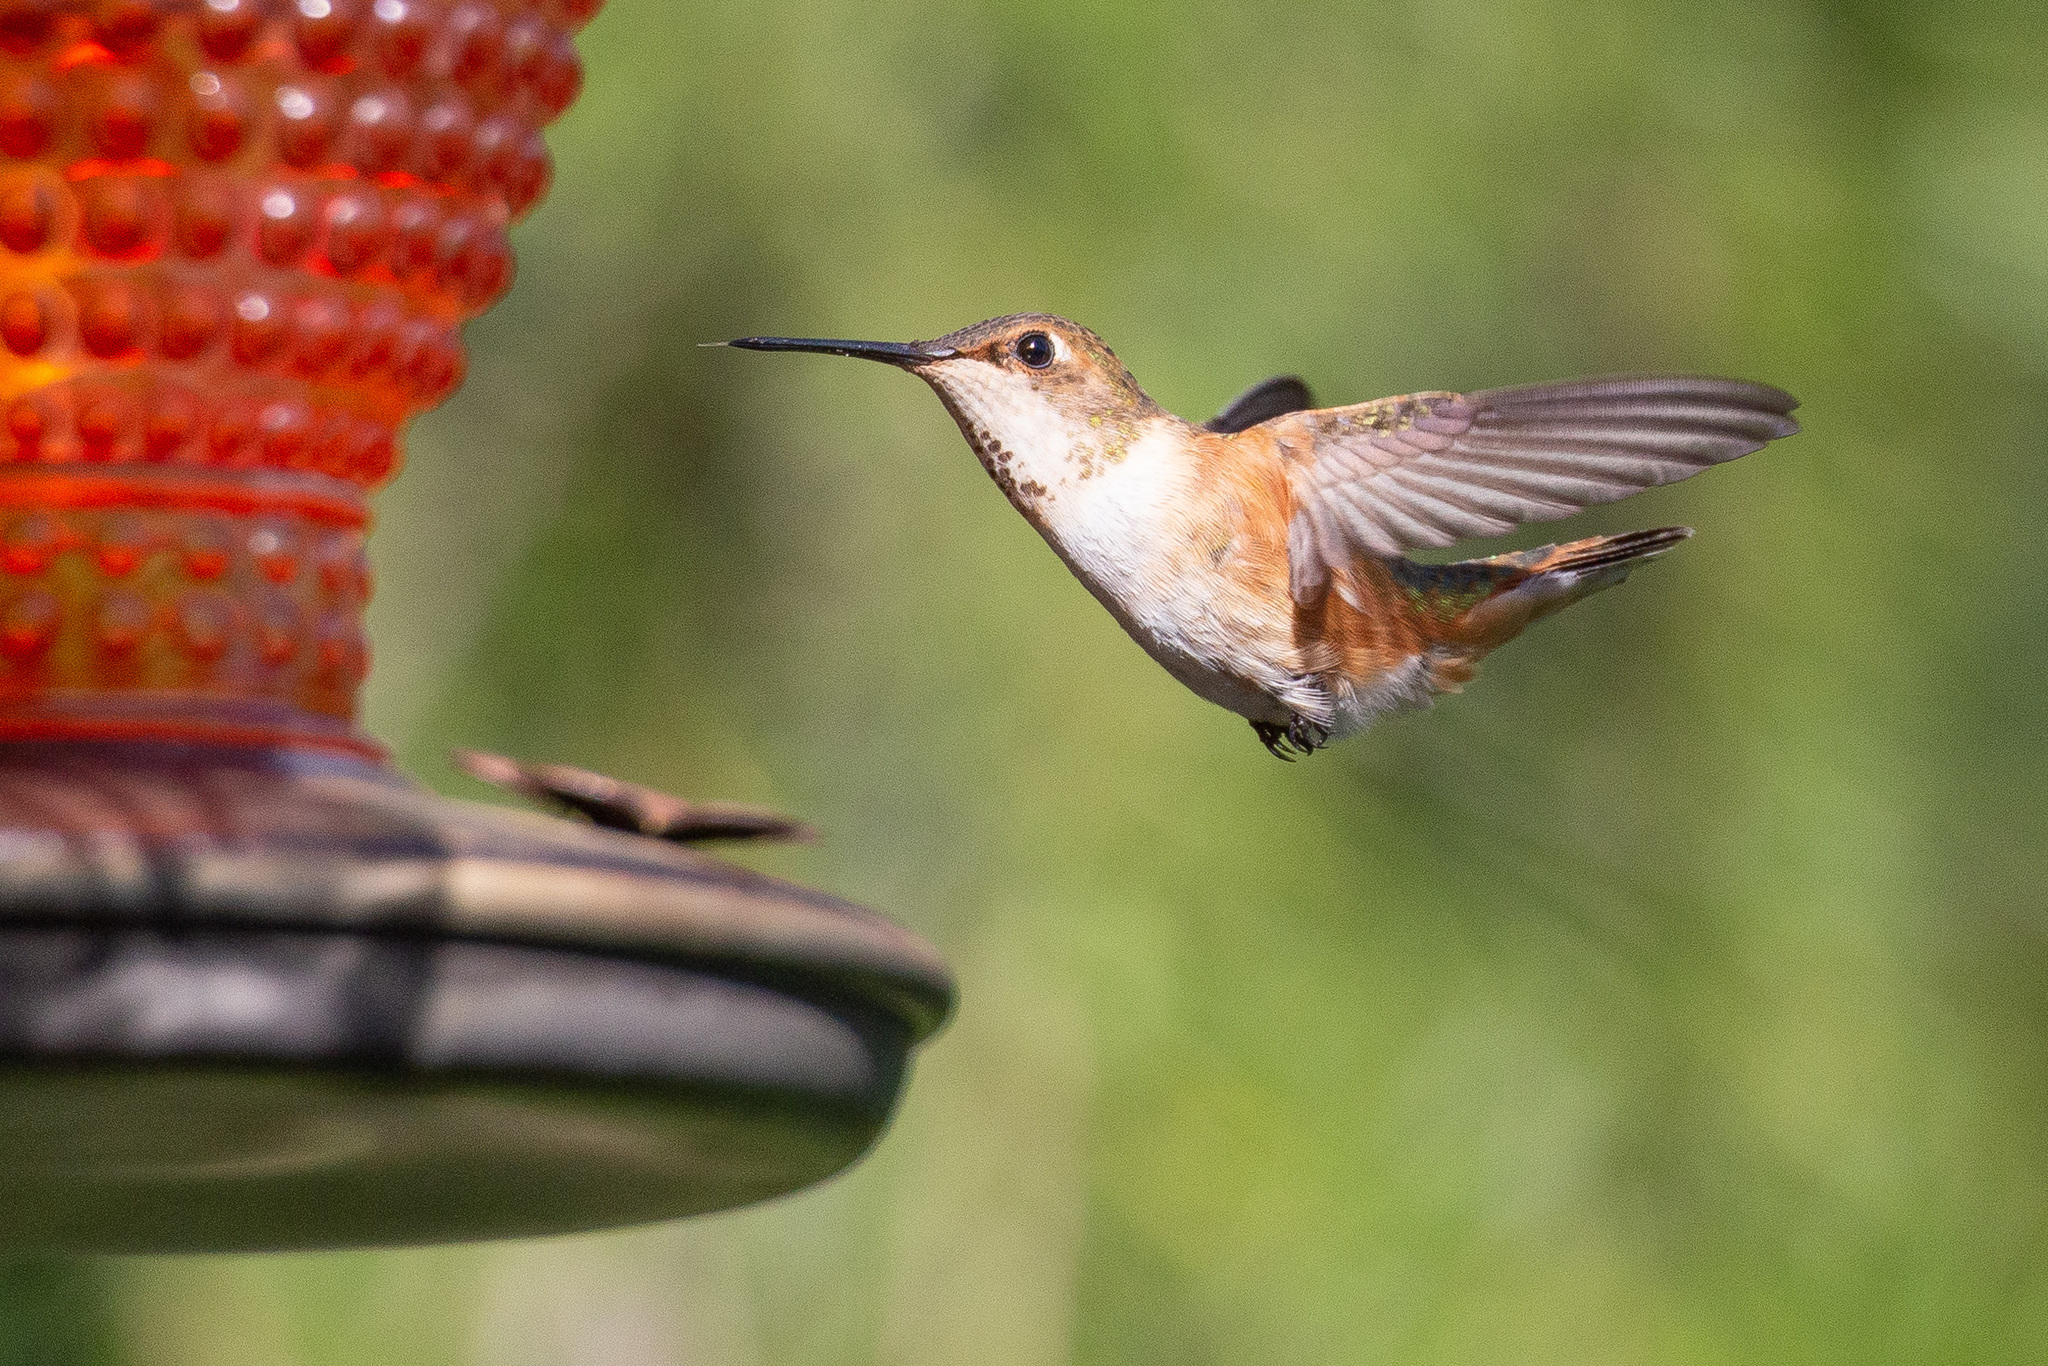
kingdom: Animalia
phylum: Chordata
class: Aves
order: Apodiformes
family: Trochilidae
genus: Selasphorus
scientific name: Selasphorus rufus
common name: Rufous hummingbird
